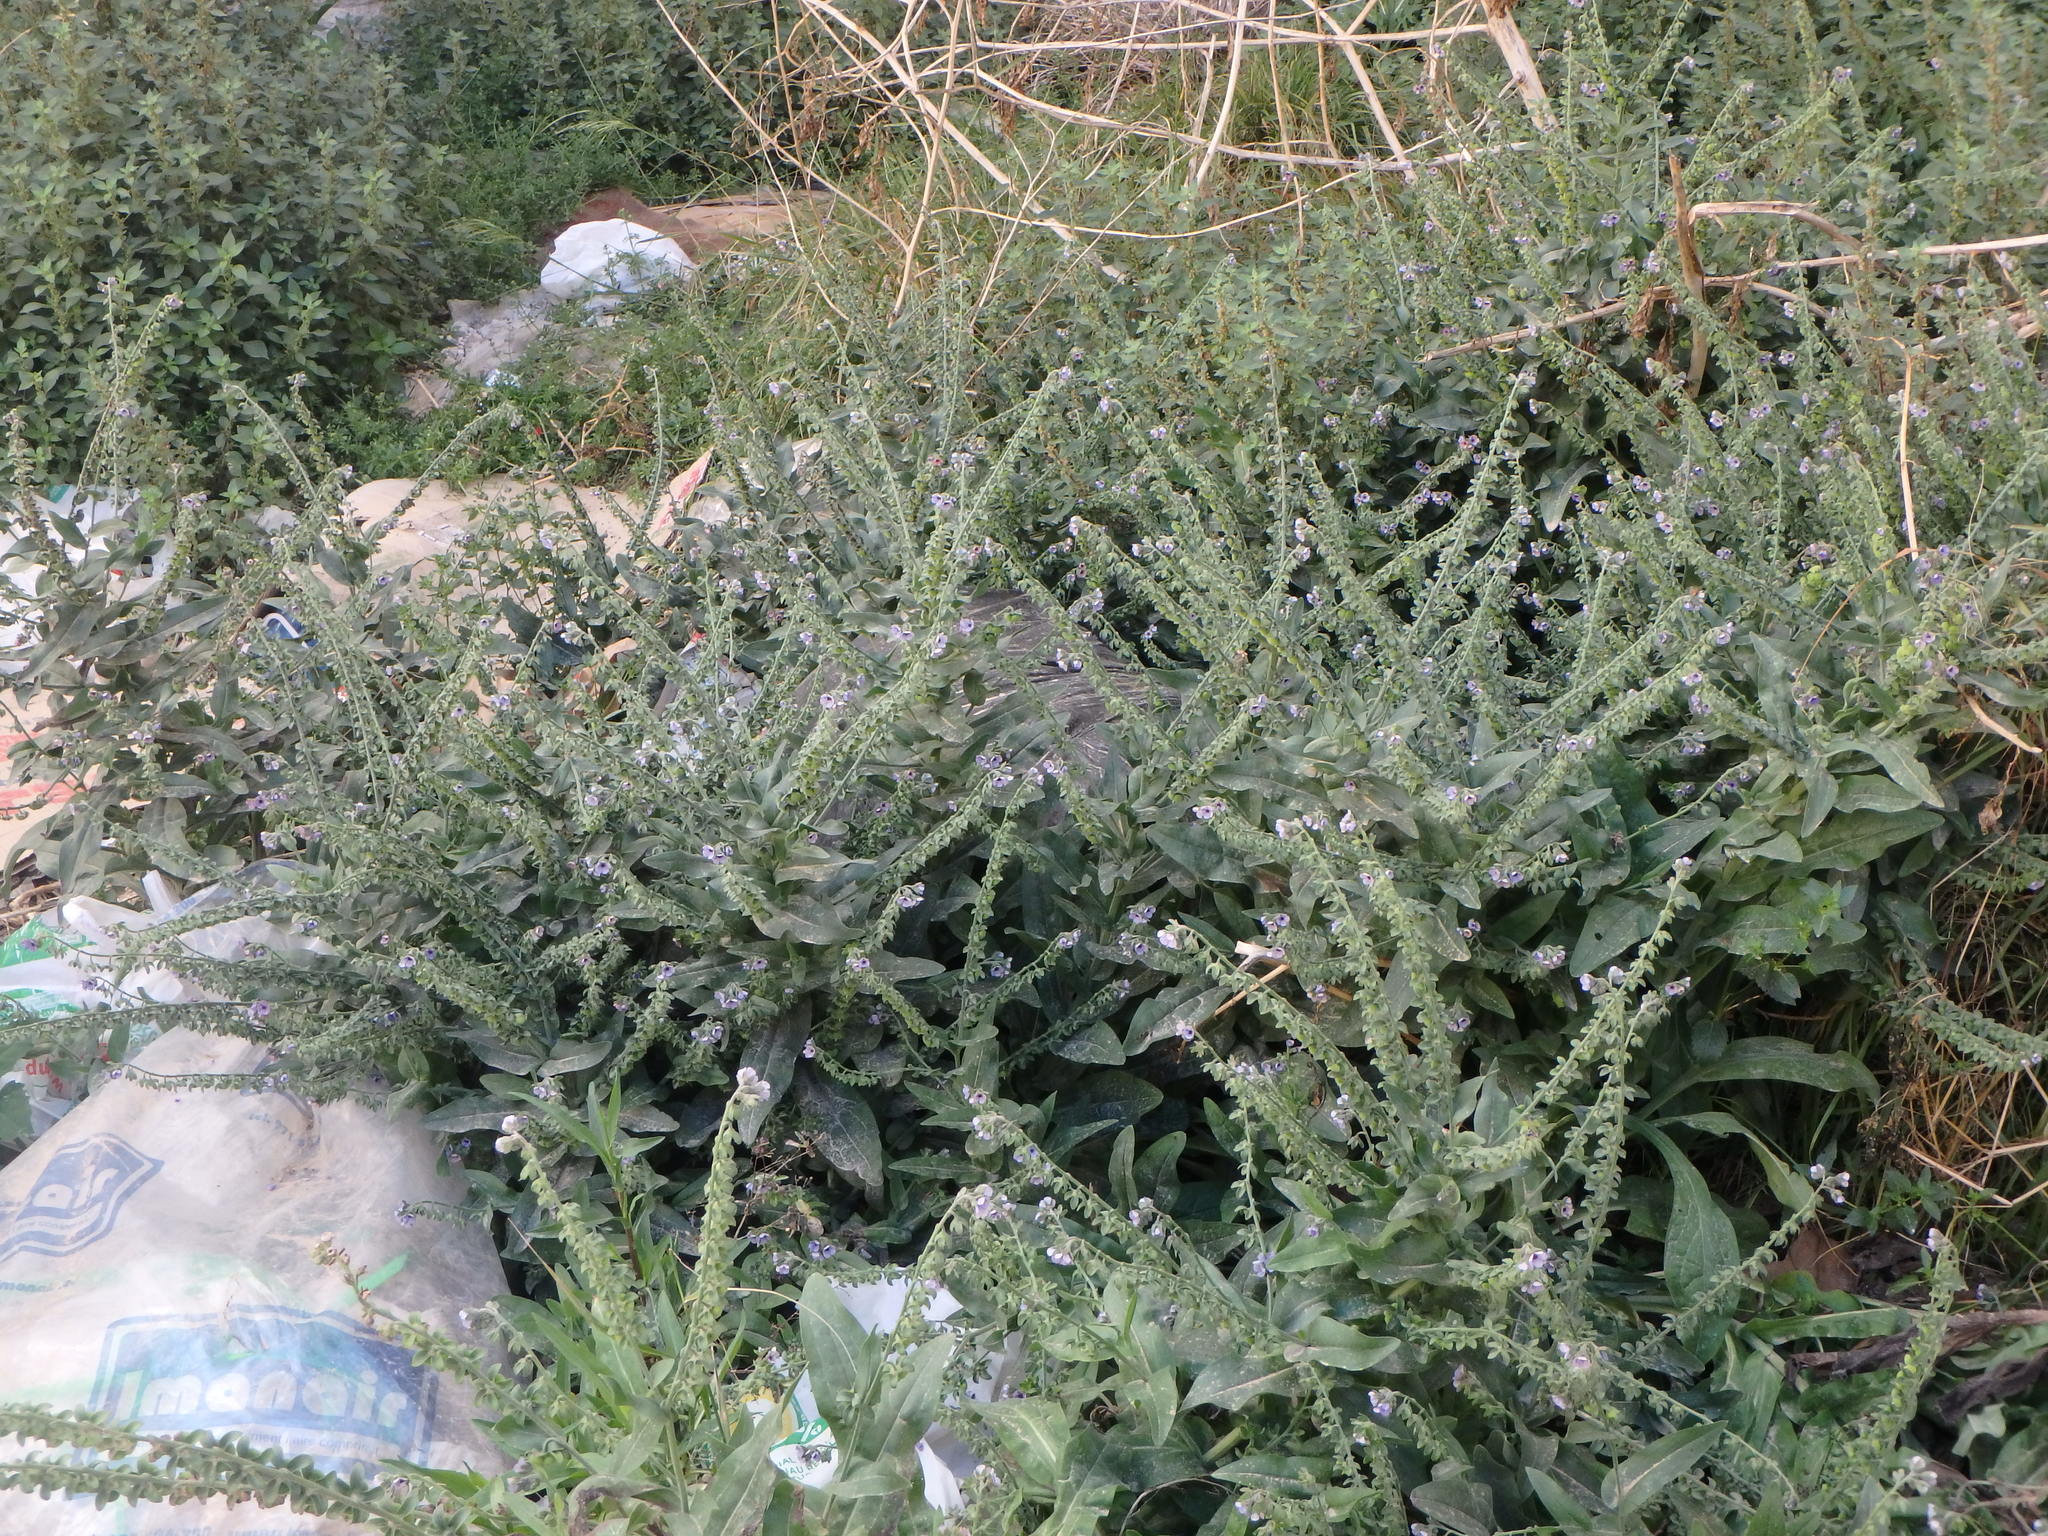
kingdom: Plantae
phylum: Tracheophyta
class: Magnoliopsida
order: Boraginales
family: Boraginaceae
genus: Cynoglossum
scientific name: Cynoglossum creticum
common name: Blue hound's tongue
